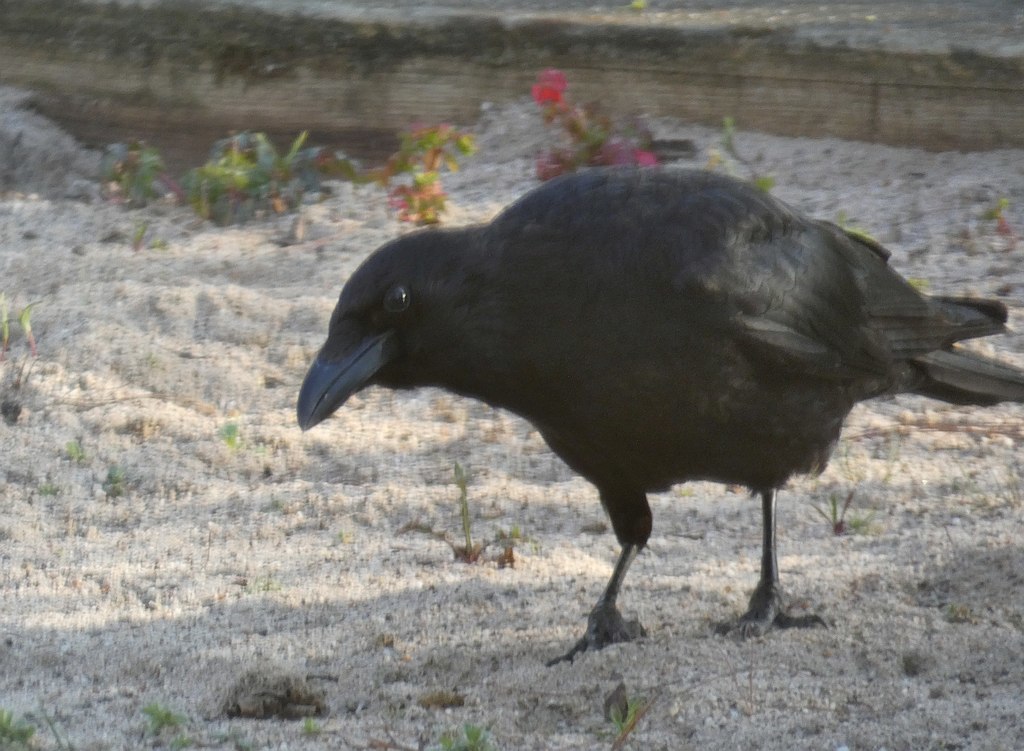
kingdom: Animalia
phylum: Chordata
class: Aves
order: Passeriformes
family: Corvidae
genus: Corvus
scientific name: Corvus corone
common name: Carrion crow
